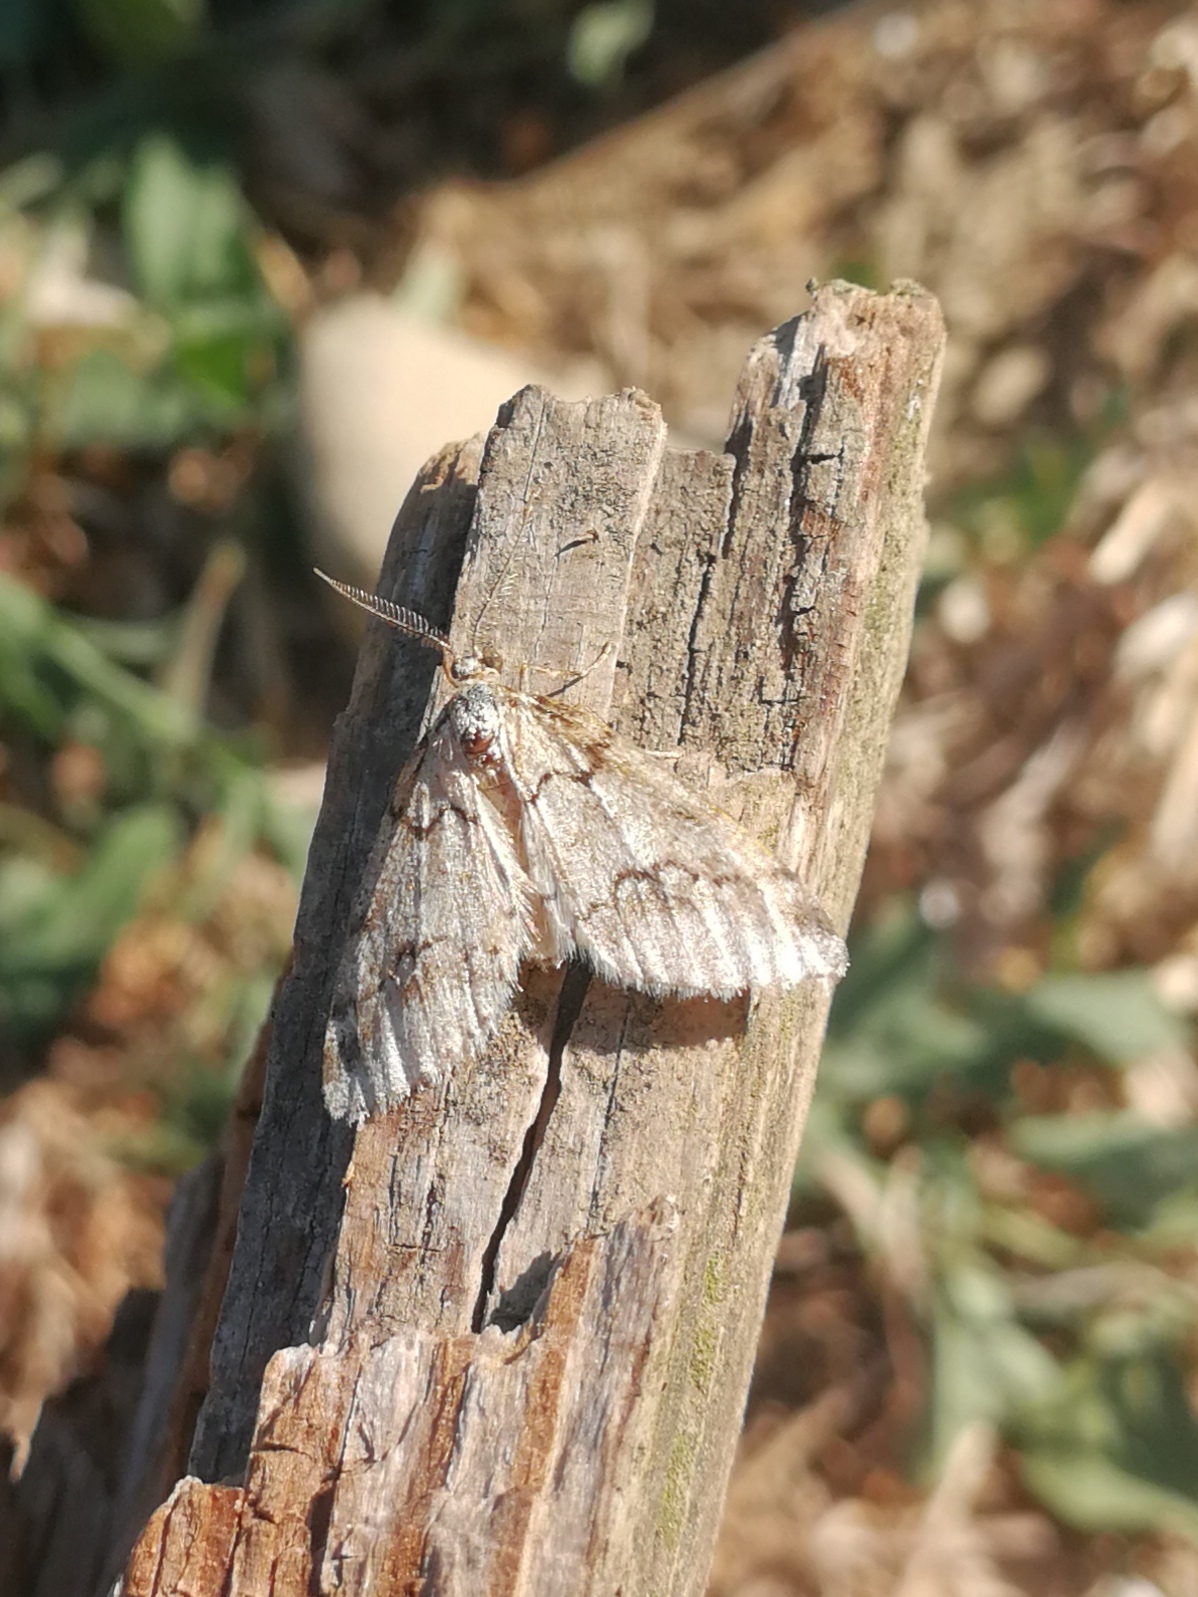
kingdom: Animalia
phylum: Arthropoda
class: Insecta
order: Lepidoptera
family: Geometridae
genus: Tephronia
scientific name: Tephronia lhommaria
